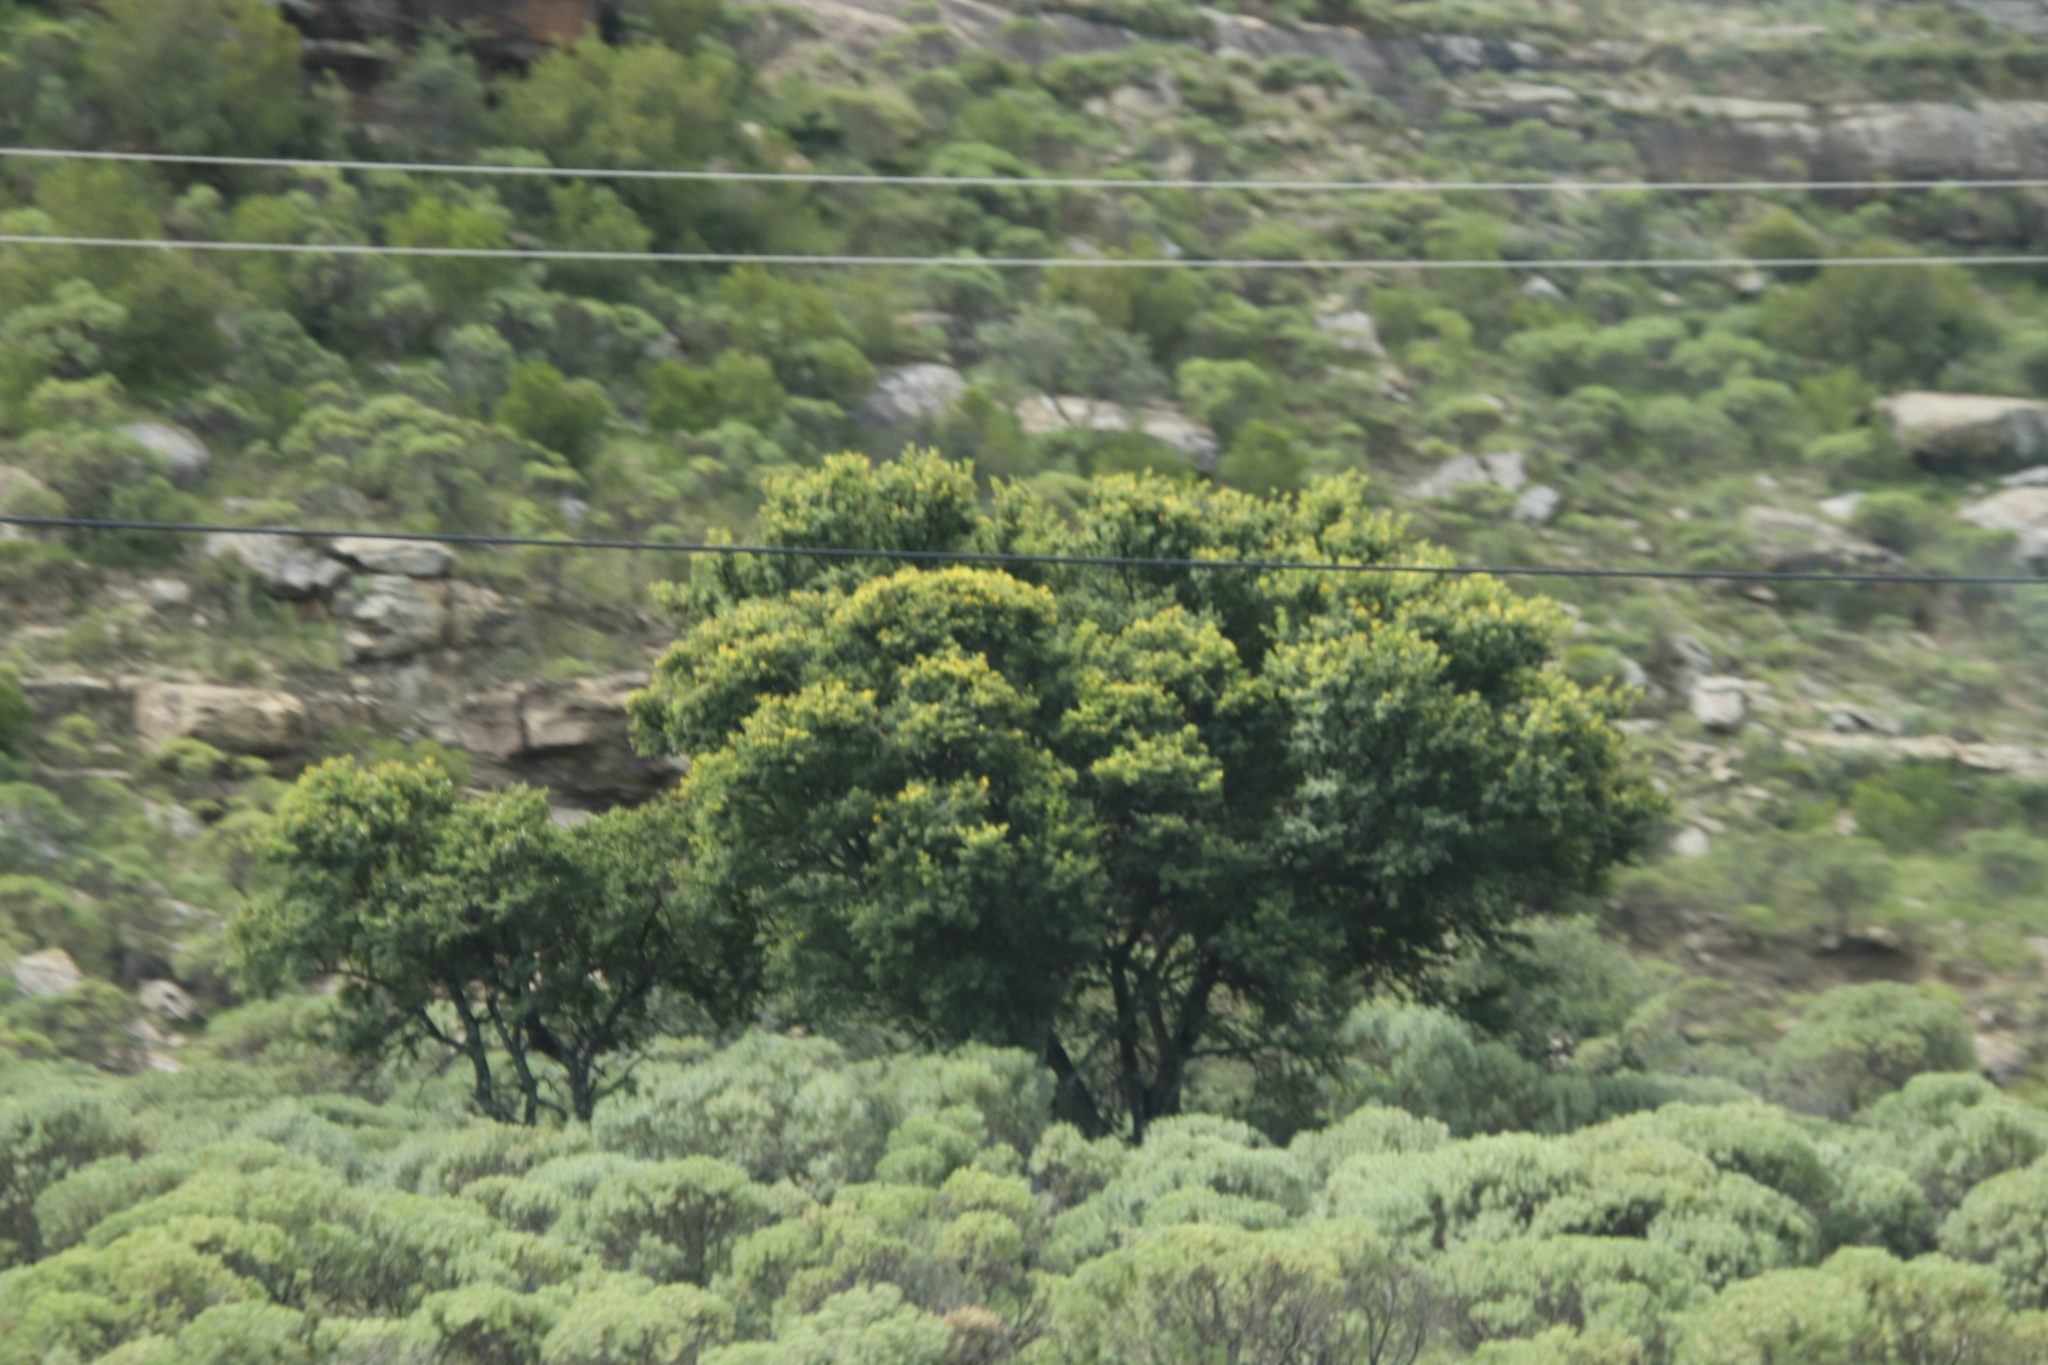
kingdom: Plantae
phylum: Tracheophyta
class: Magnoliopsida
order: Fabales
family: Fabaceae
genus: Vachellia
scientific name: Vachellia karroo
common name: Sweet thorn
